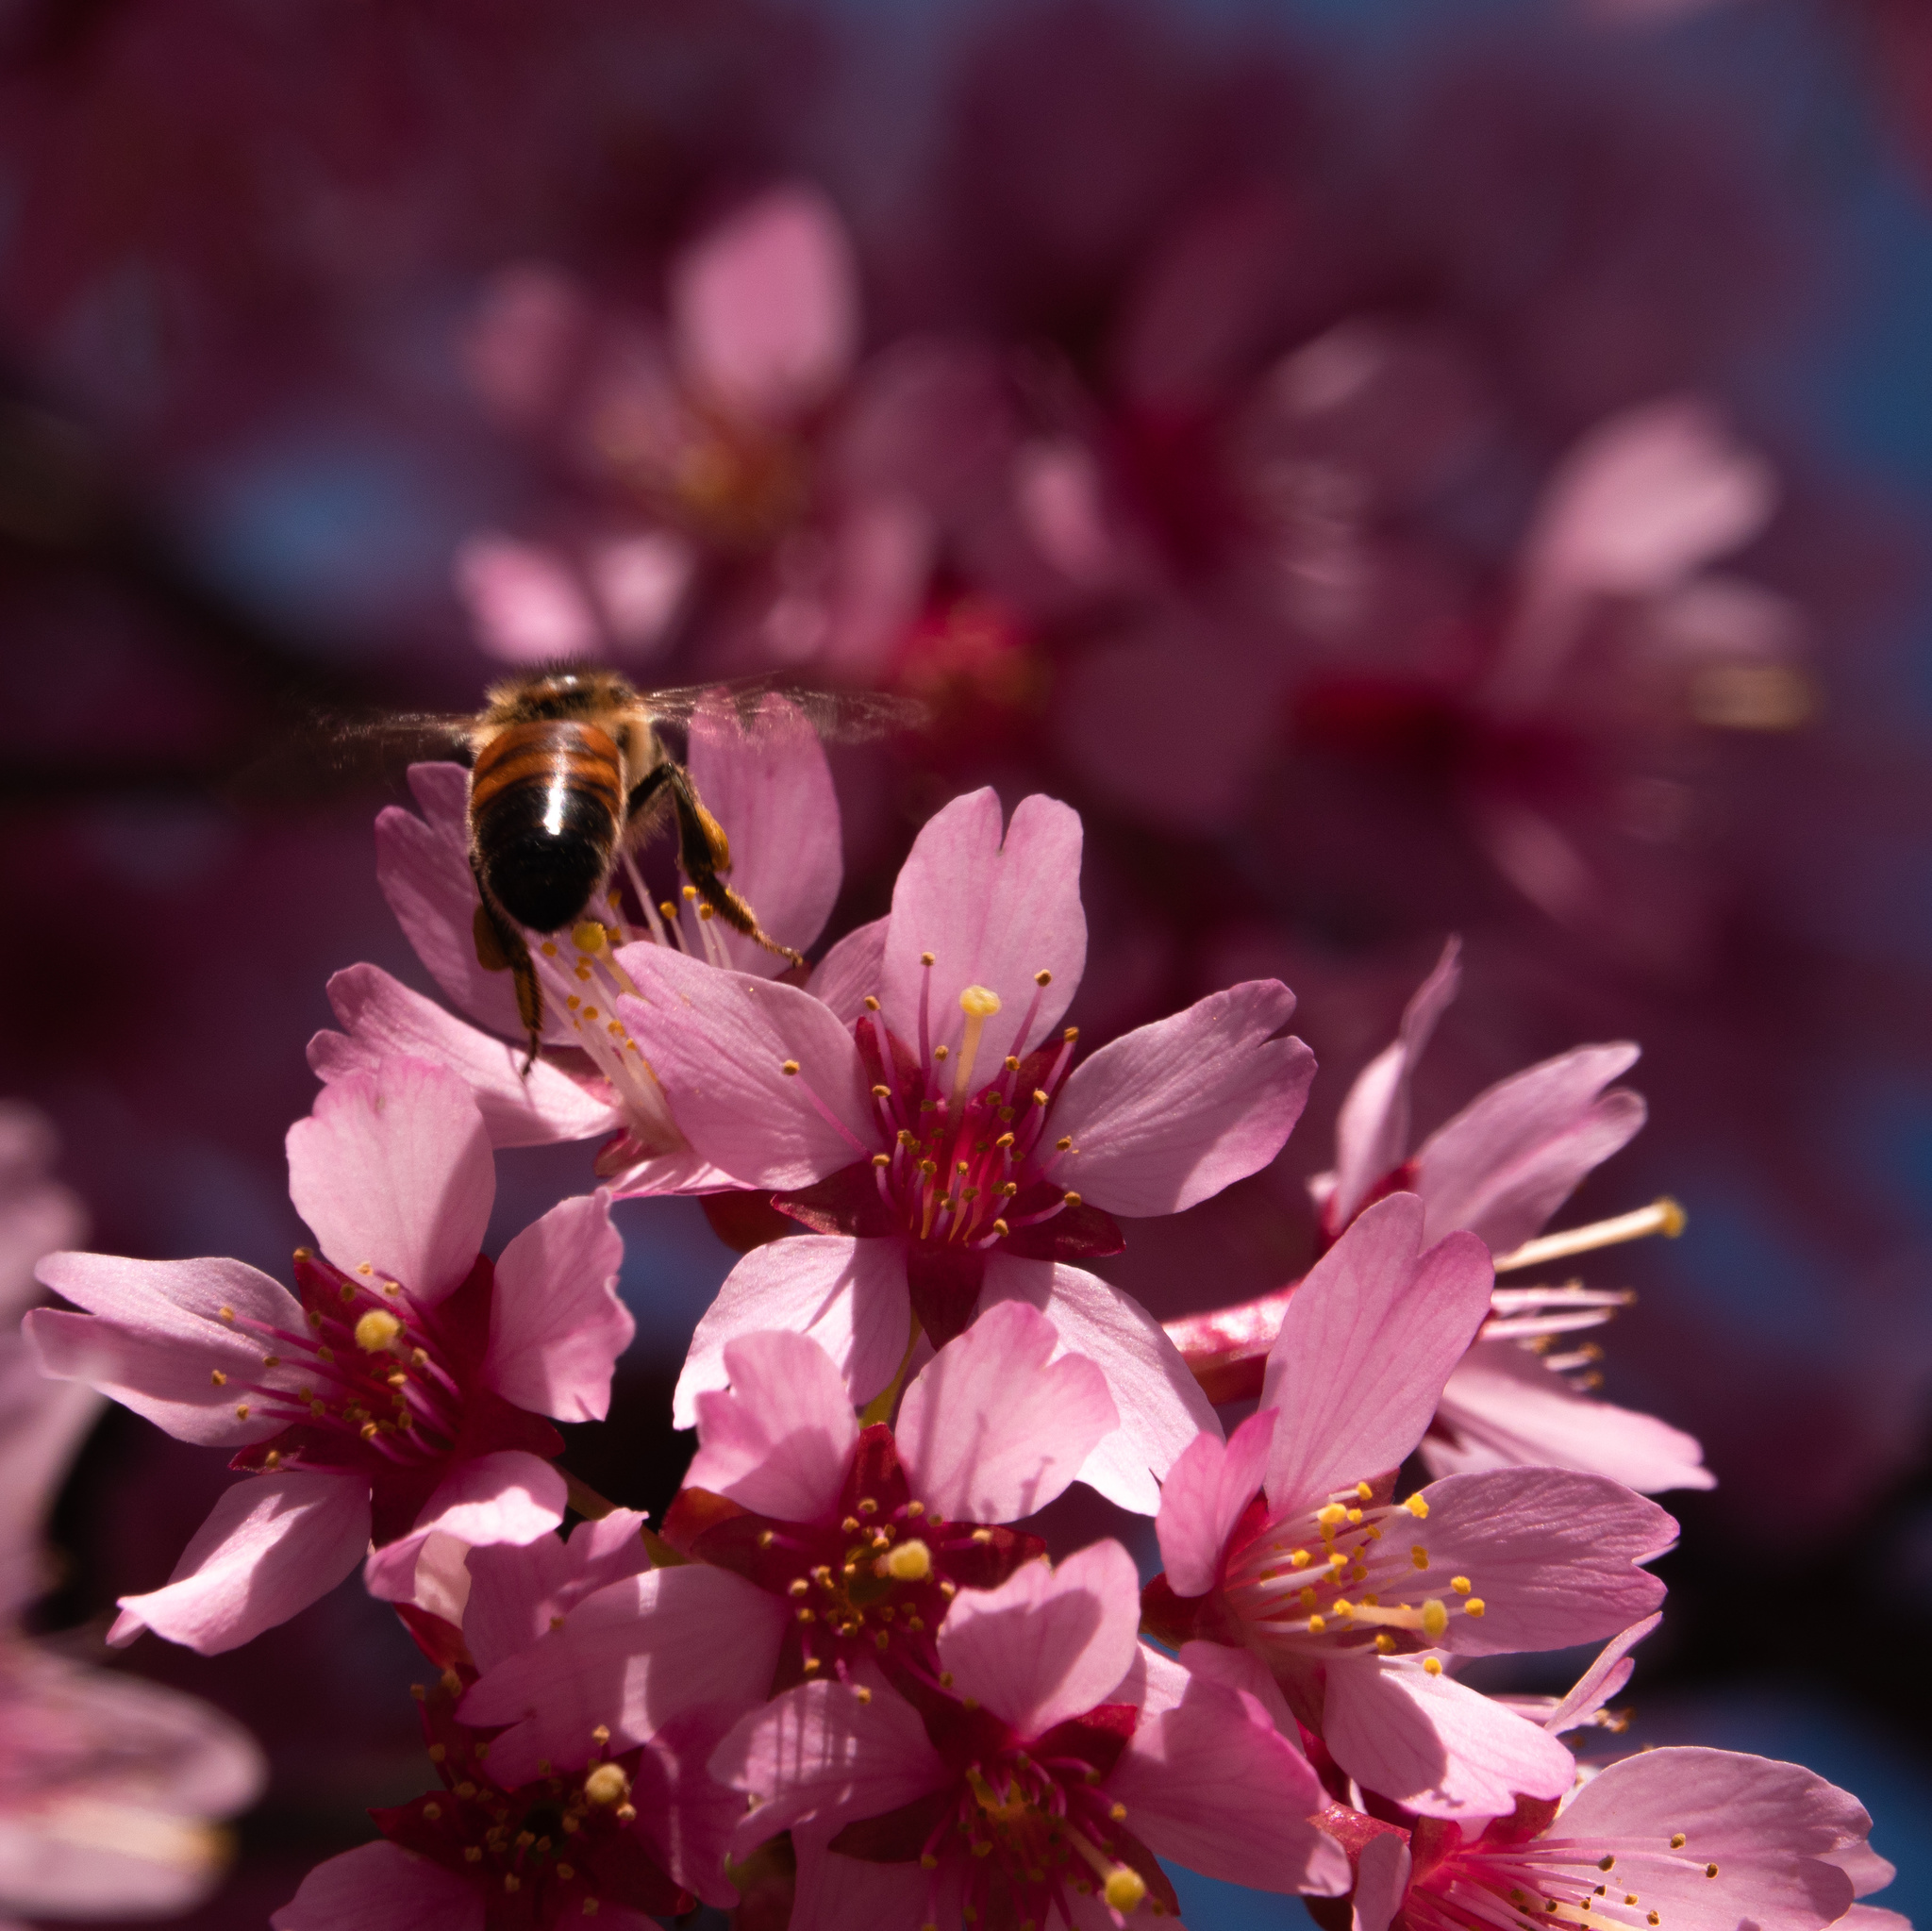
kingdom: Animalia
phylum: Arthropoda
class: Insecta
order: Hymenoptera
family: Apidae
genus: Apis
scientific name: Apis mellifera
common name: Honey bee
